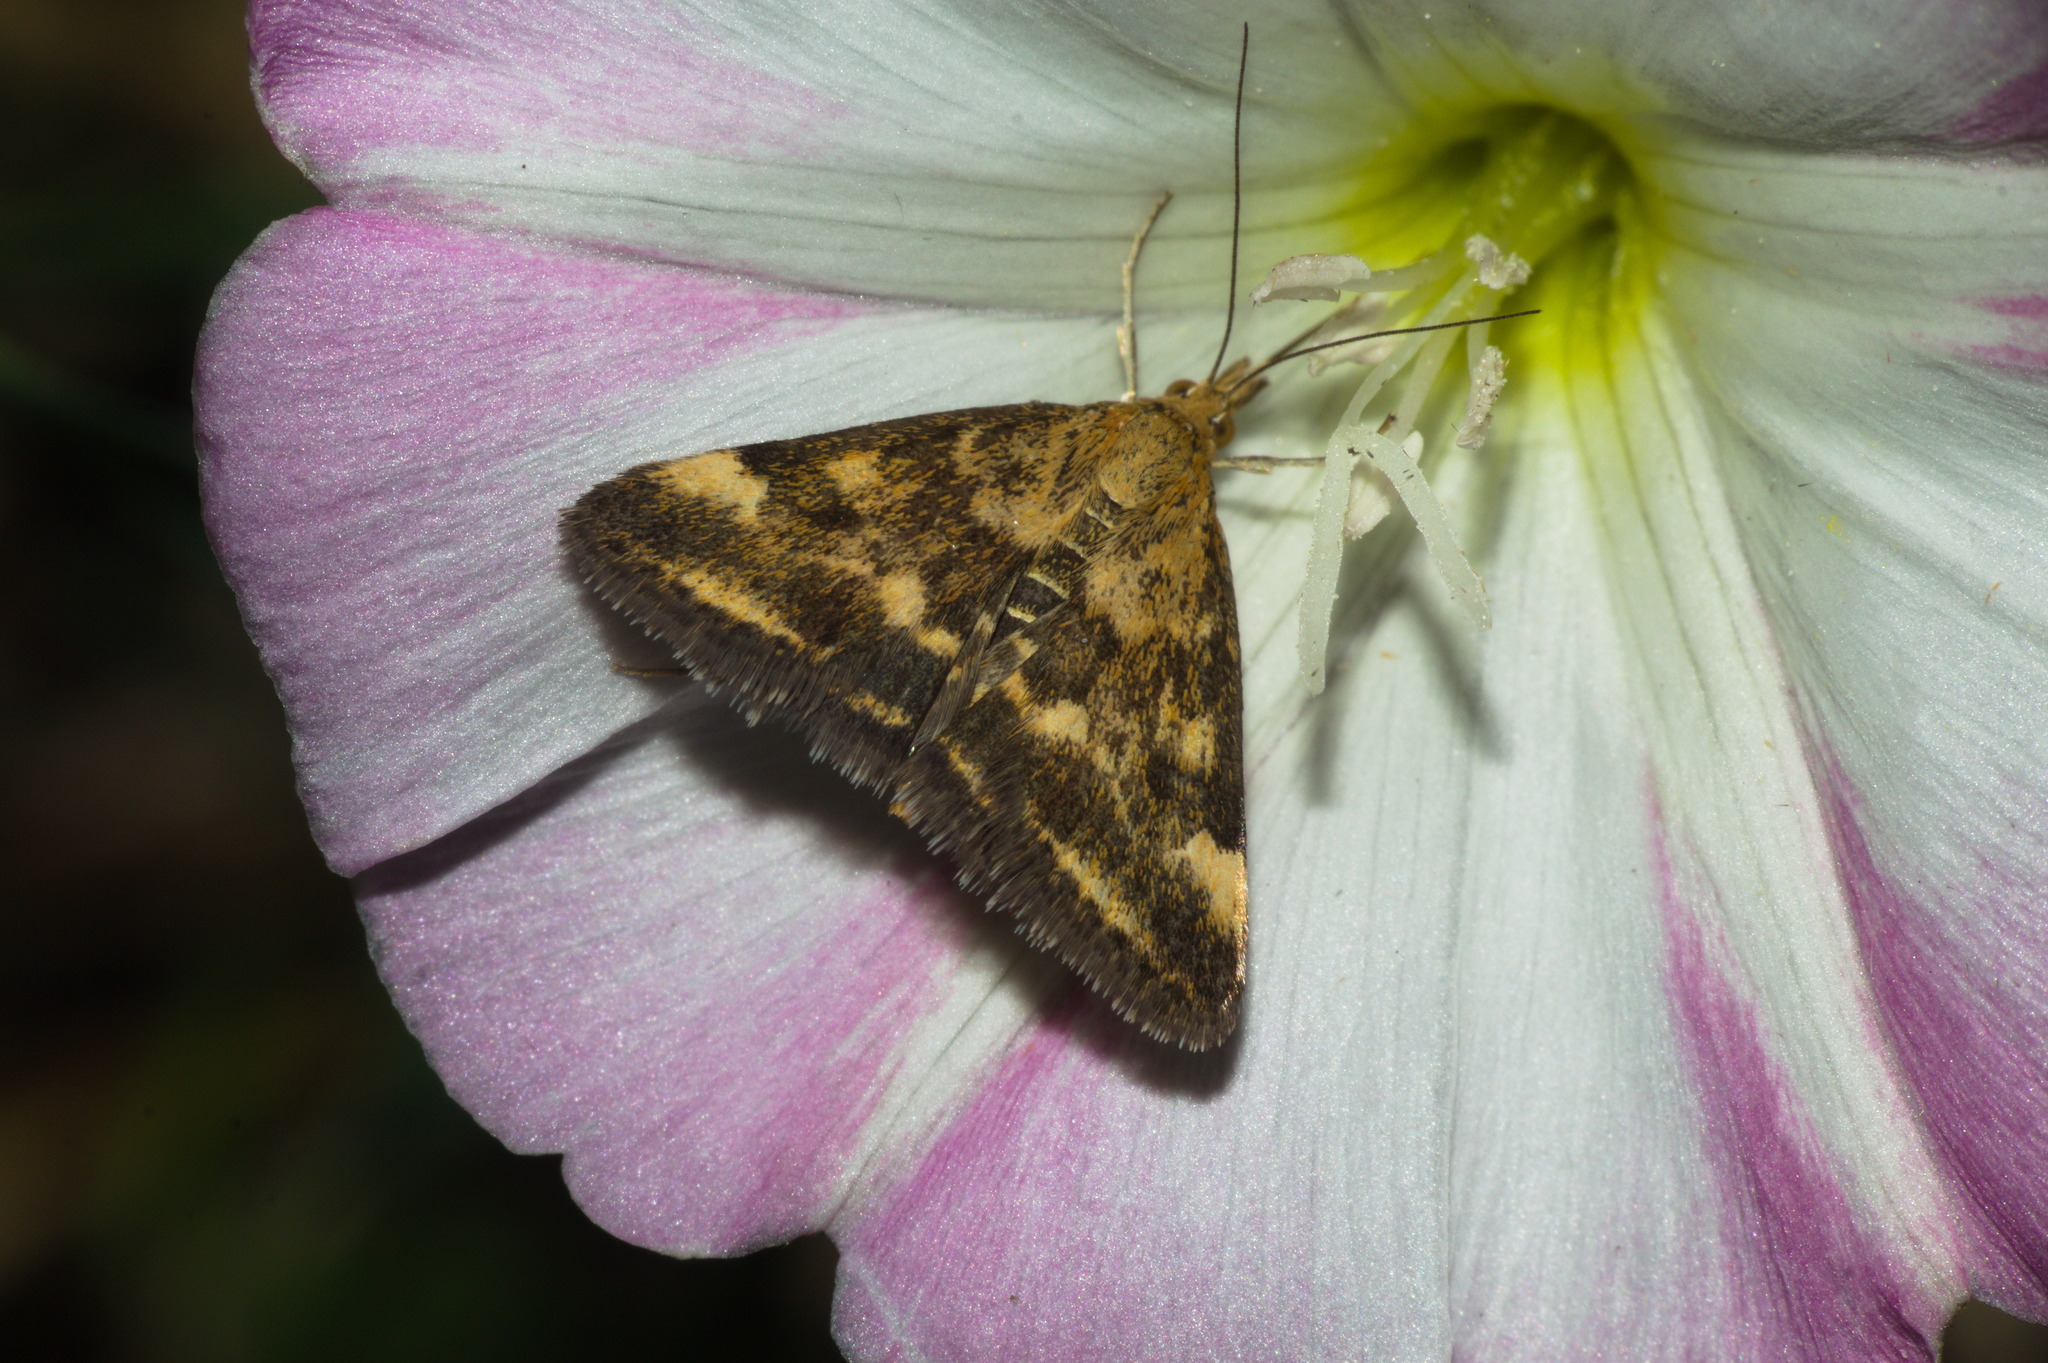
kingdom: Animalia
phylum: Arthropoda
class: Insecta
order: Lepidoptera
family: Crambidae
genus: Pyrausta
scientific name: Pyrausta despicata
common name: Straw-barred pearl
